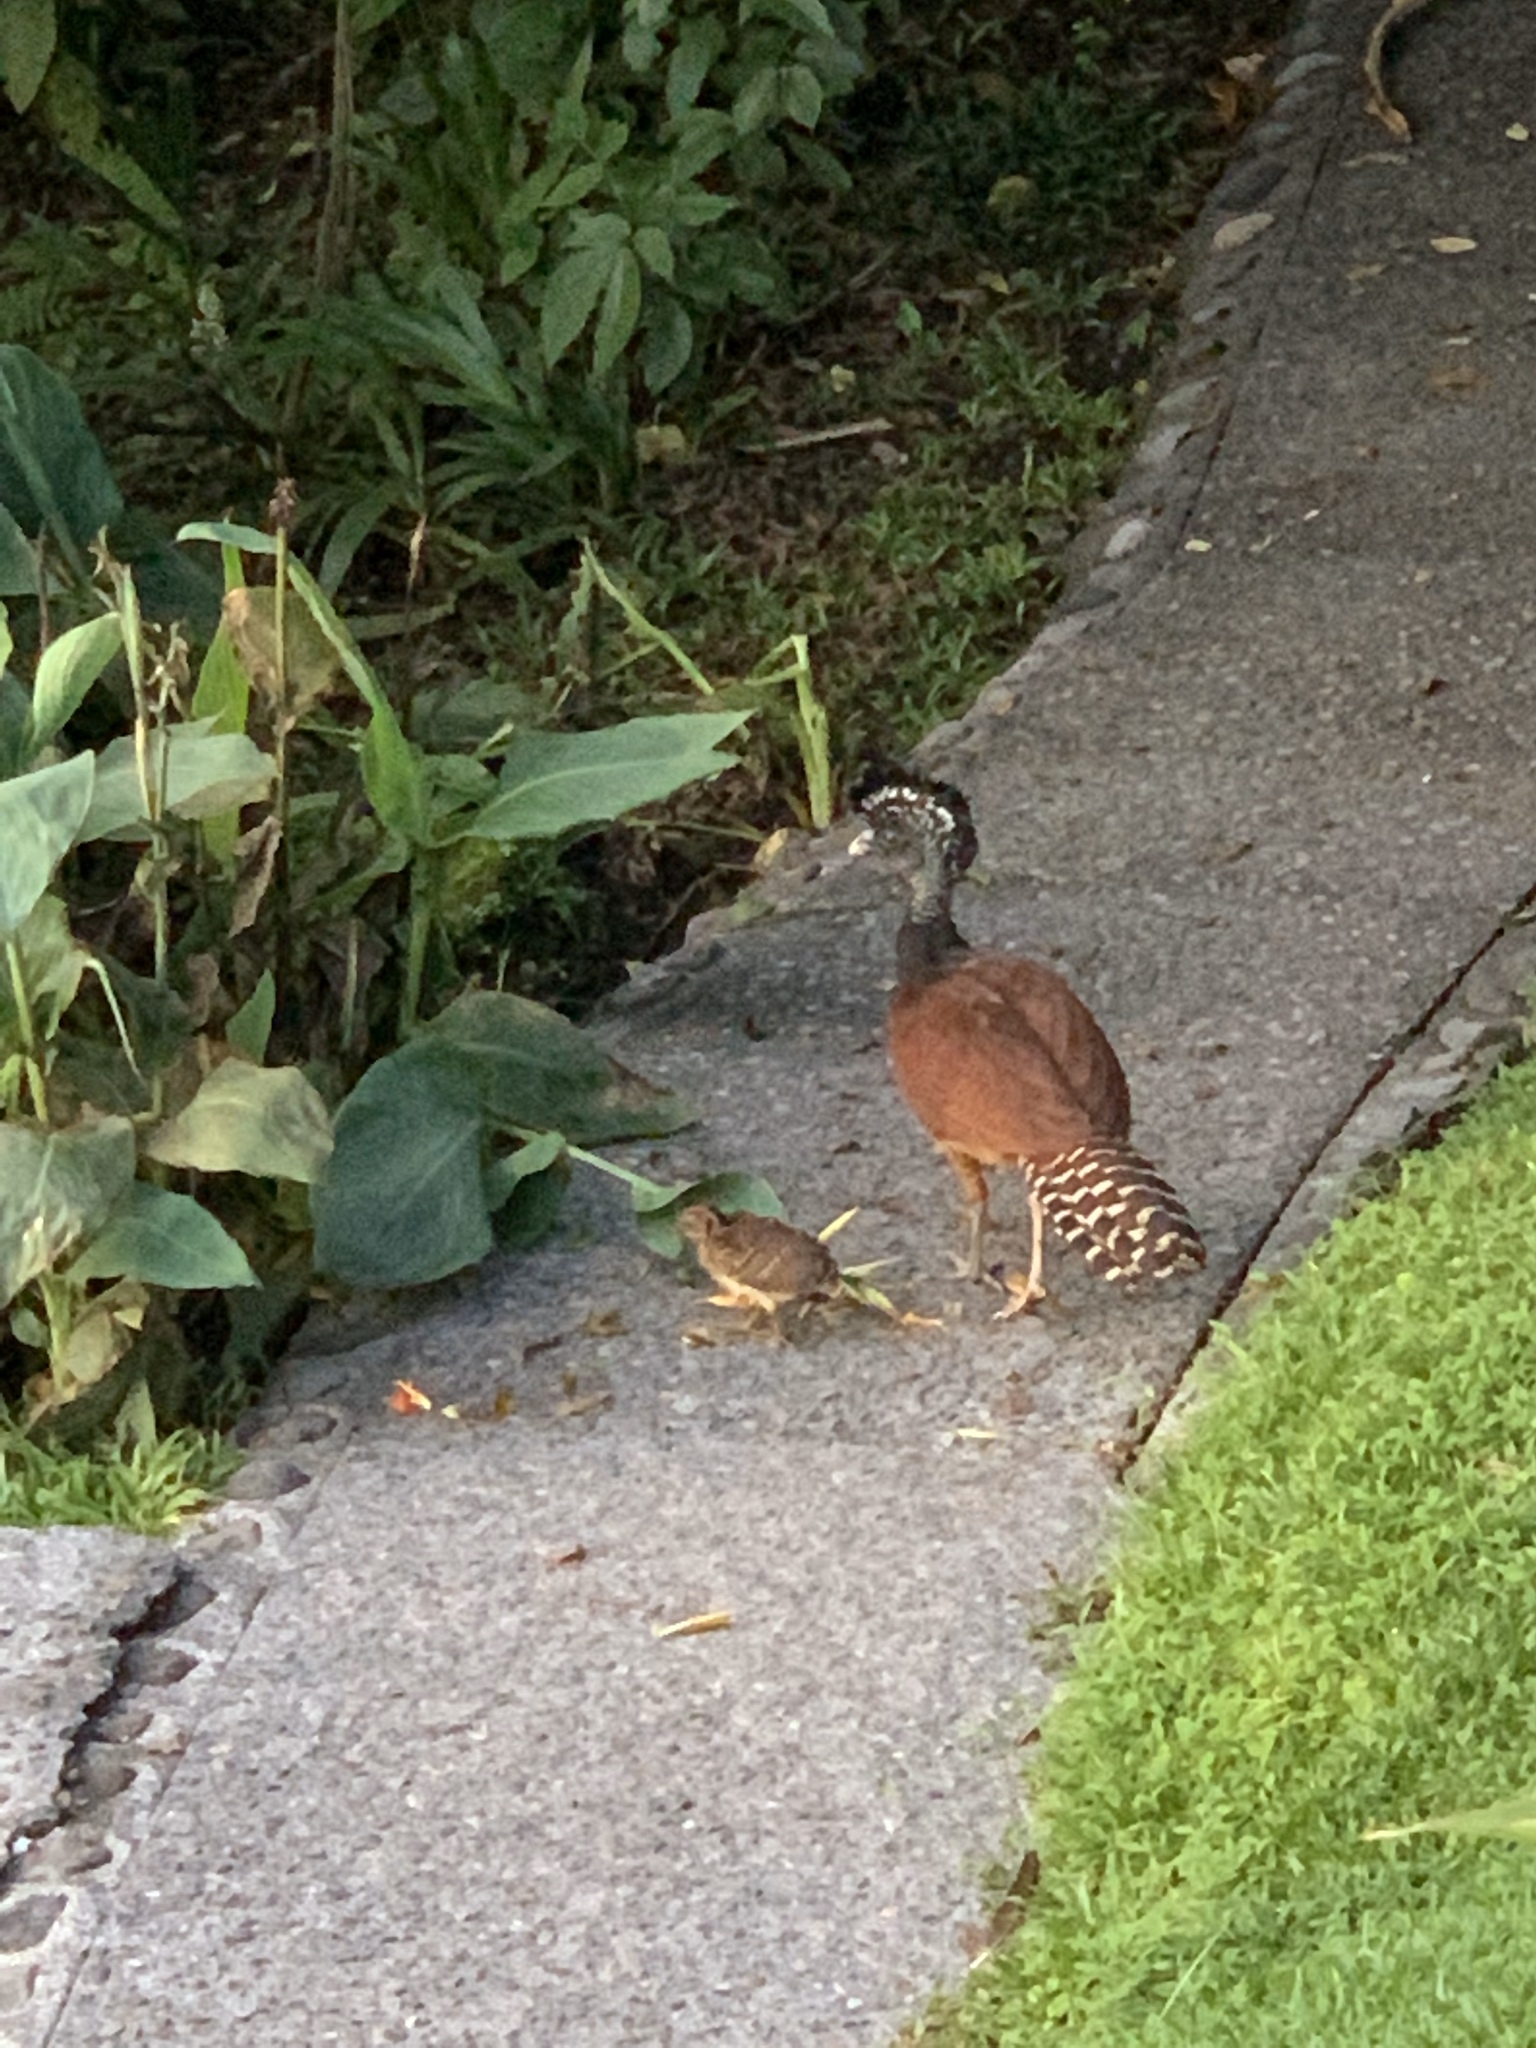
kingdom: Animalia
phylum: Chordata
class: Aves
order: Galliformes
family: Cracidae
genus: Crax
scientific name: Crax rubra
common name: Great curassow
